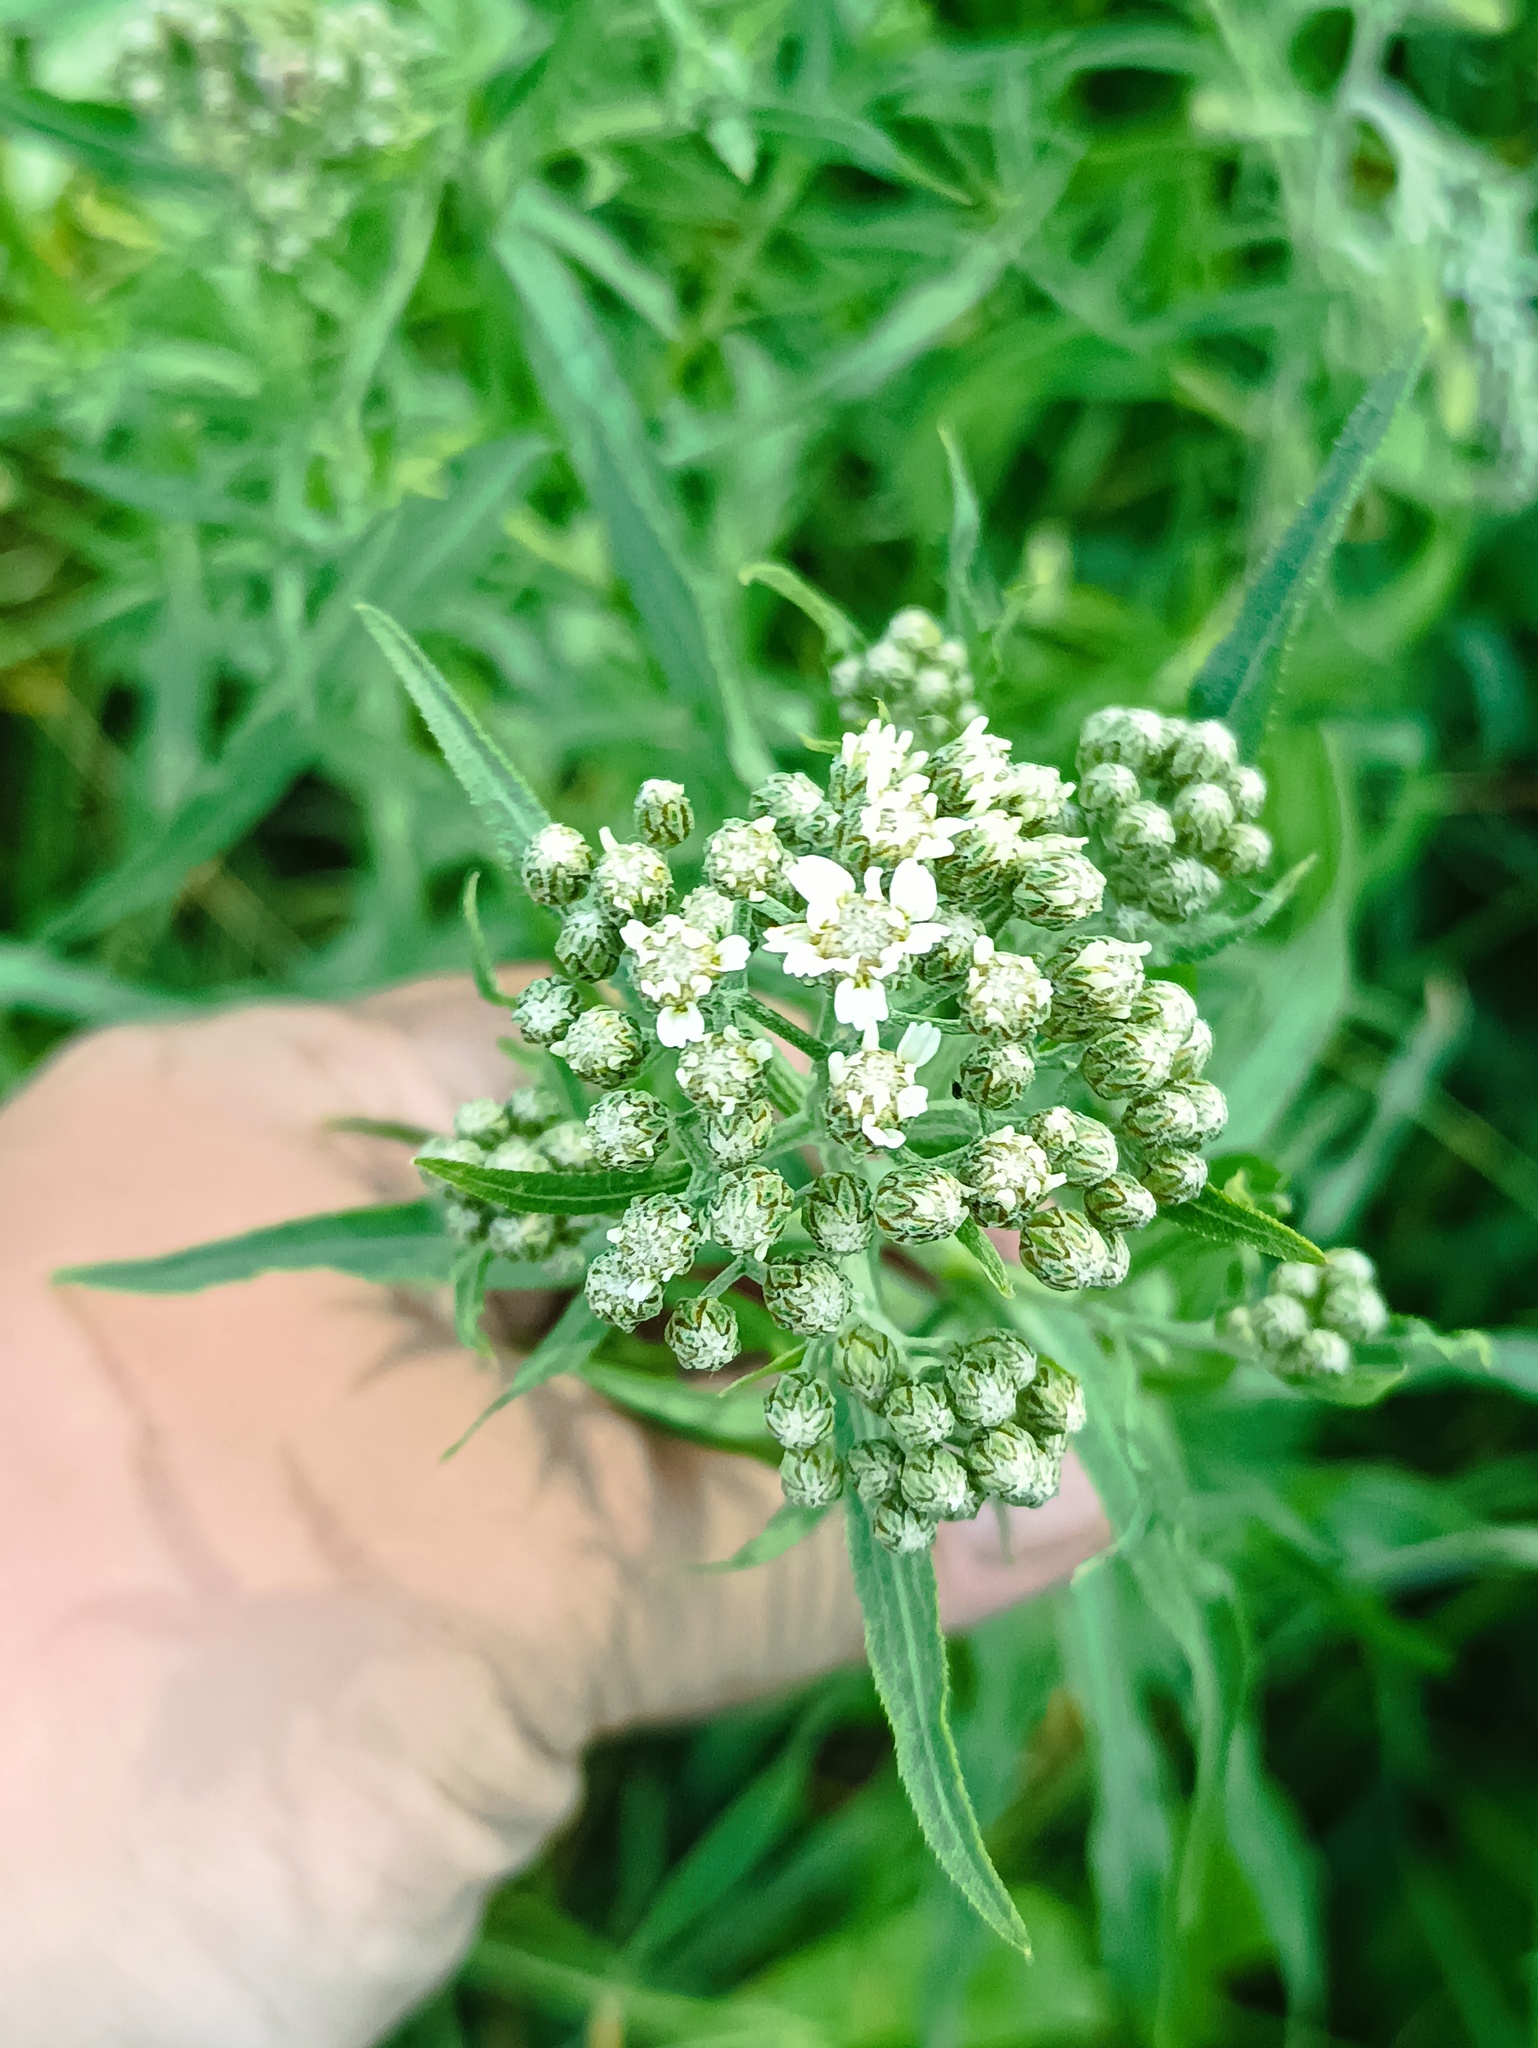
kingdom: Plantae
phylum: Tracheophyta
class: Magnoliopsida
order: Asterales
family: Asteraceae
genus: Achillea
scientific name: Achillea salicifolia
